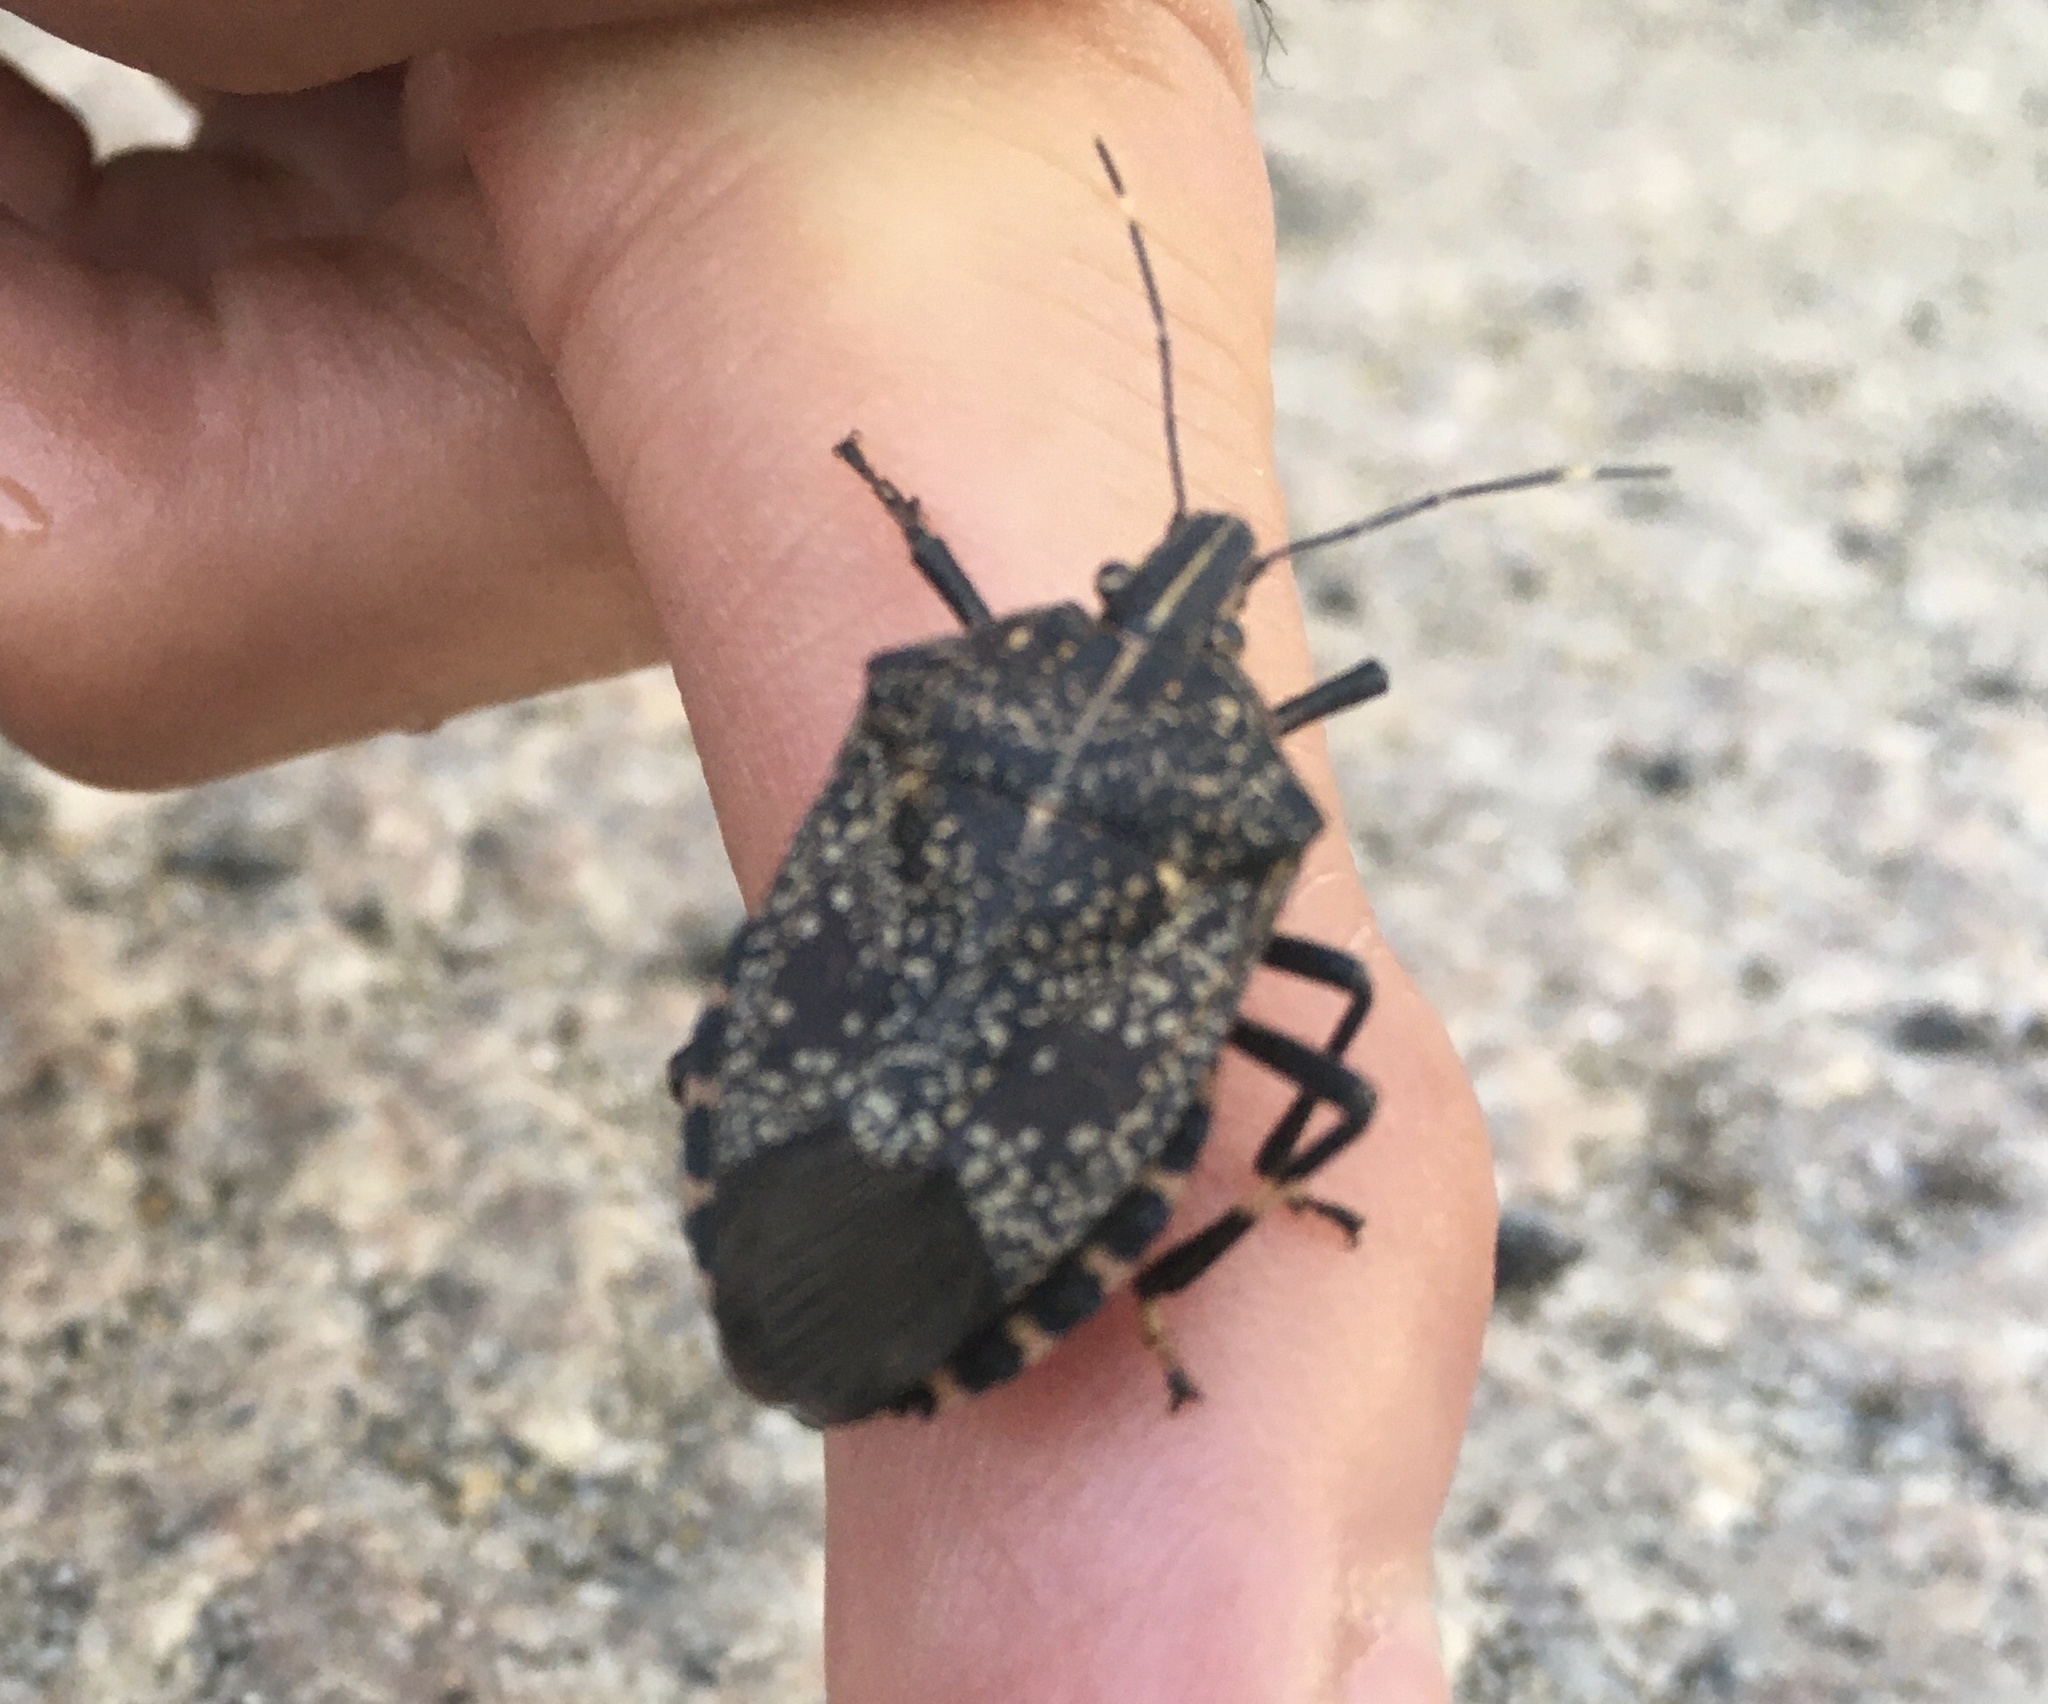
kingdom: Animalia
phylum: Arthropoda
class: Insecta
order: Hemiptera
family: Pentatomidae
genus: Erthesina
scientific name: Erthesina fullo
